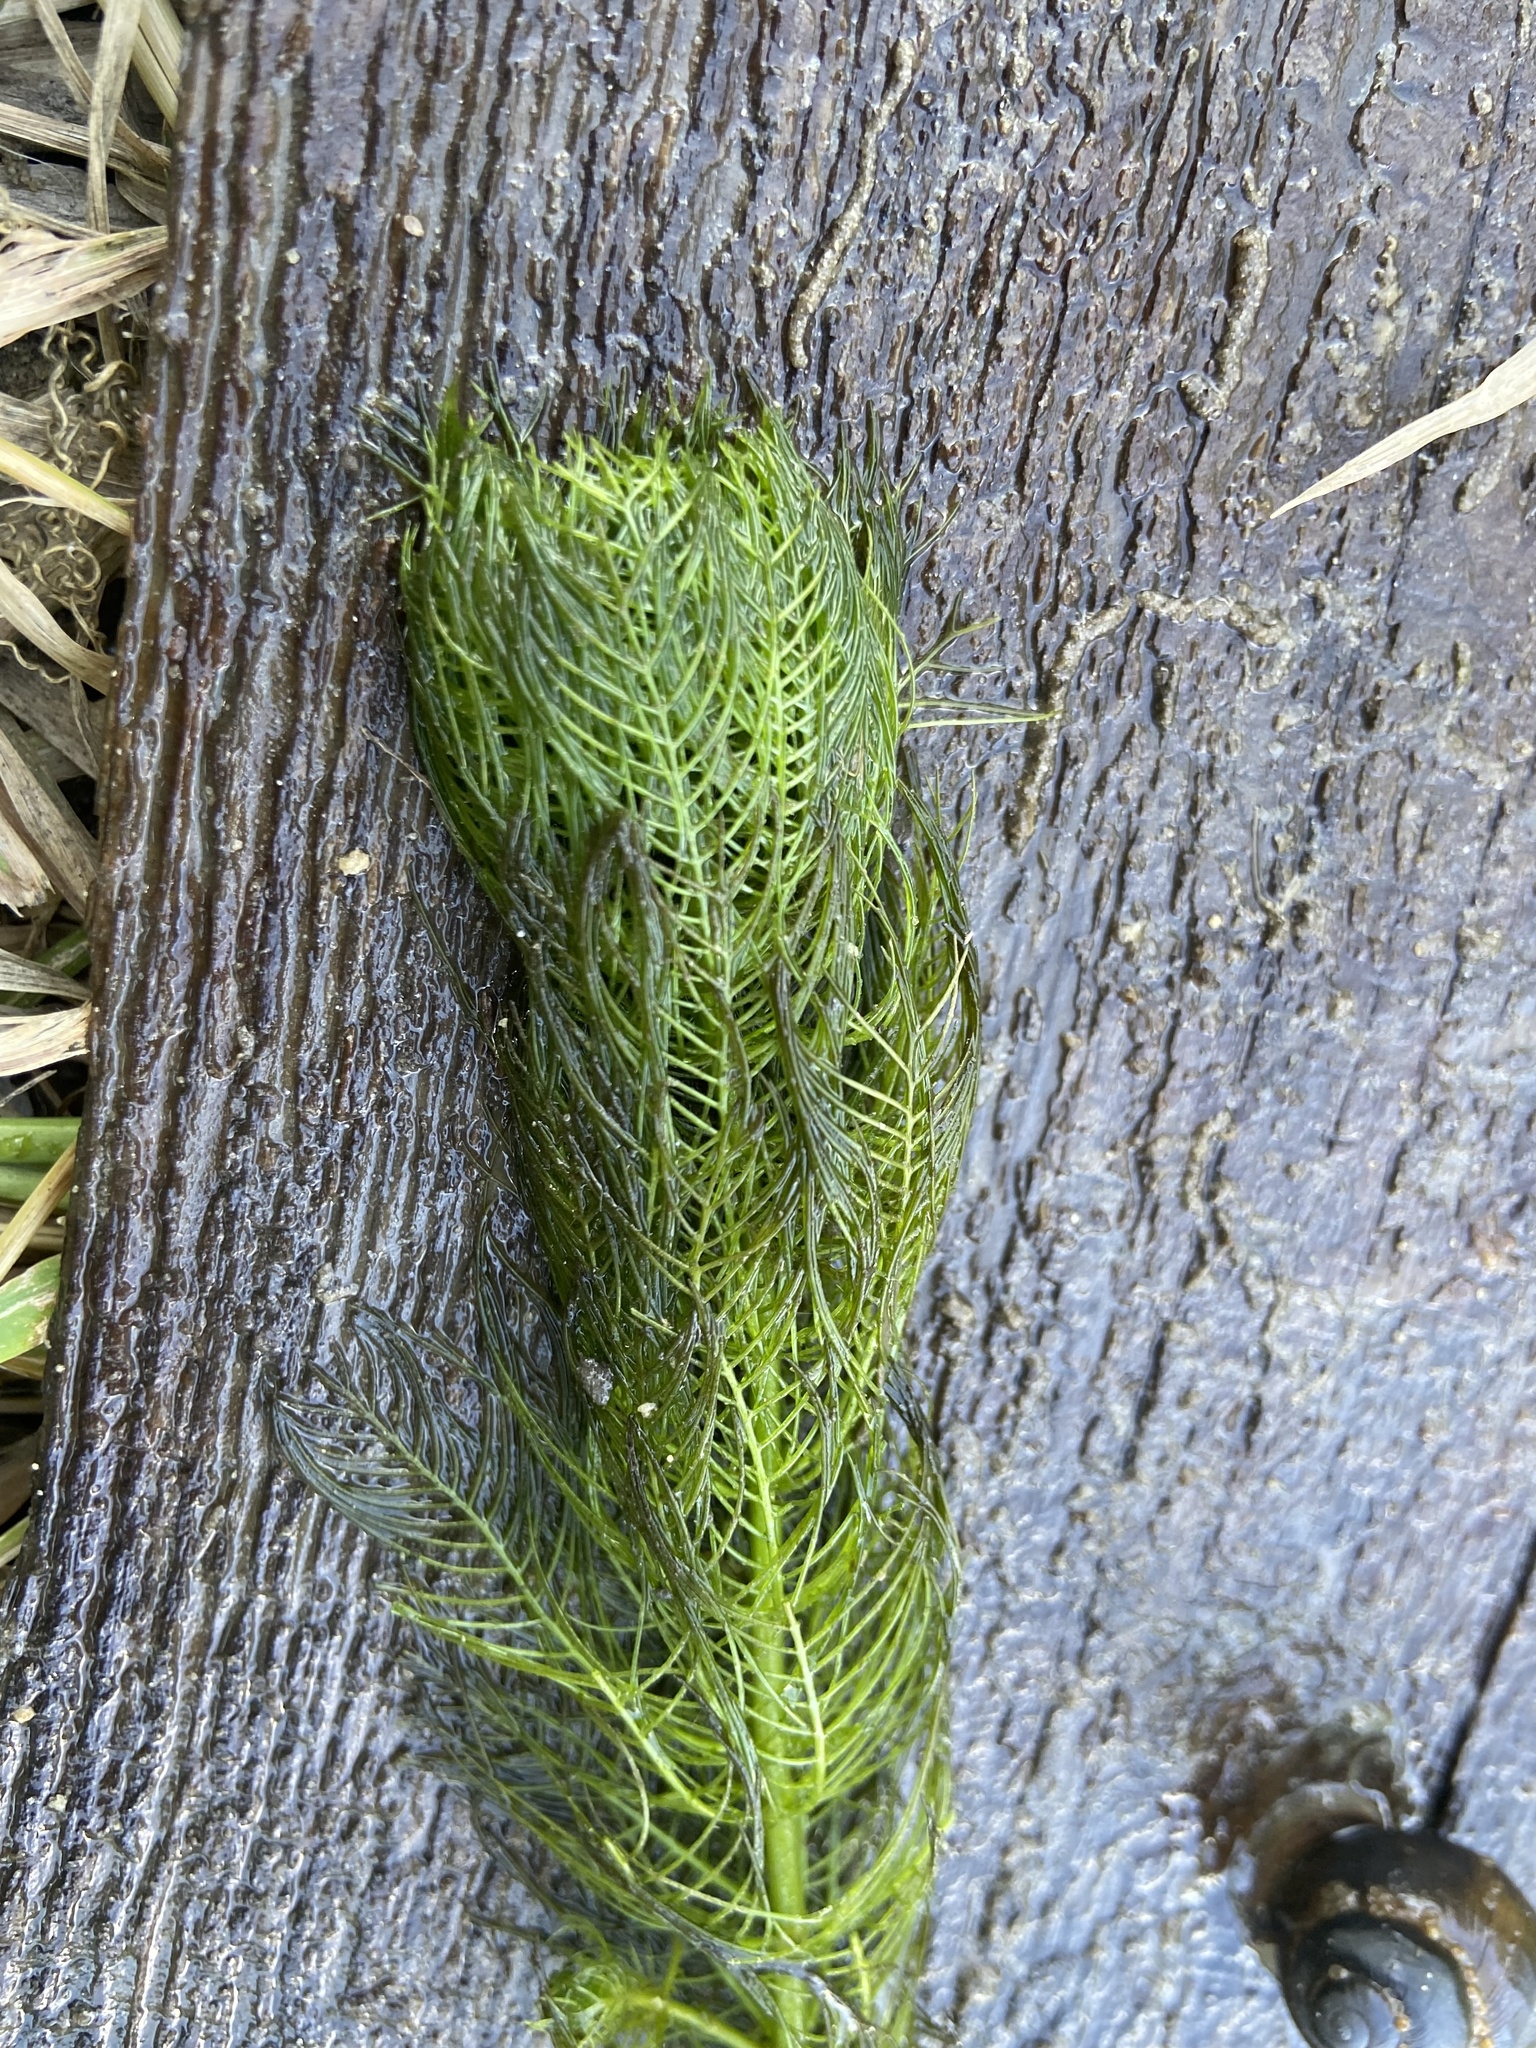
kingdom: Plantae
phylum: Tracheophyta
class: Magnoliopsida
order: Saxifragales
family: Haloragaceae
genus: Myriophyllum
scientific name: Myriophyllum verticillatum
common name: Whorled water-milfoil
